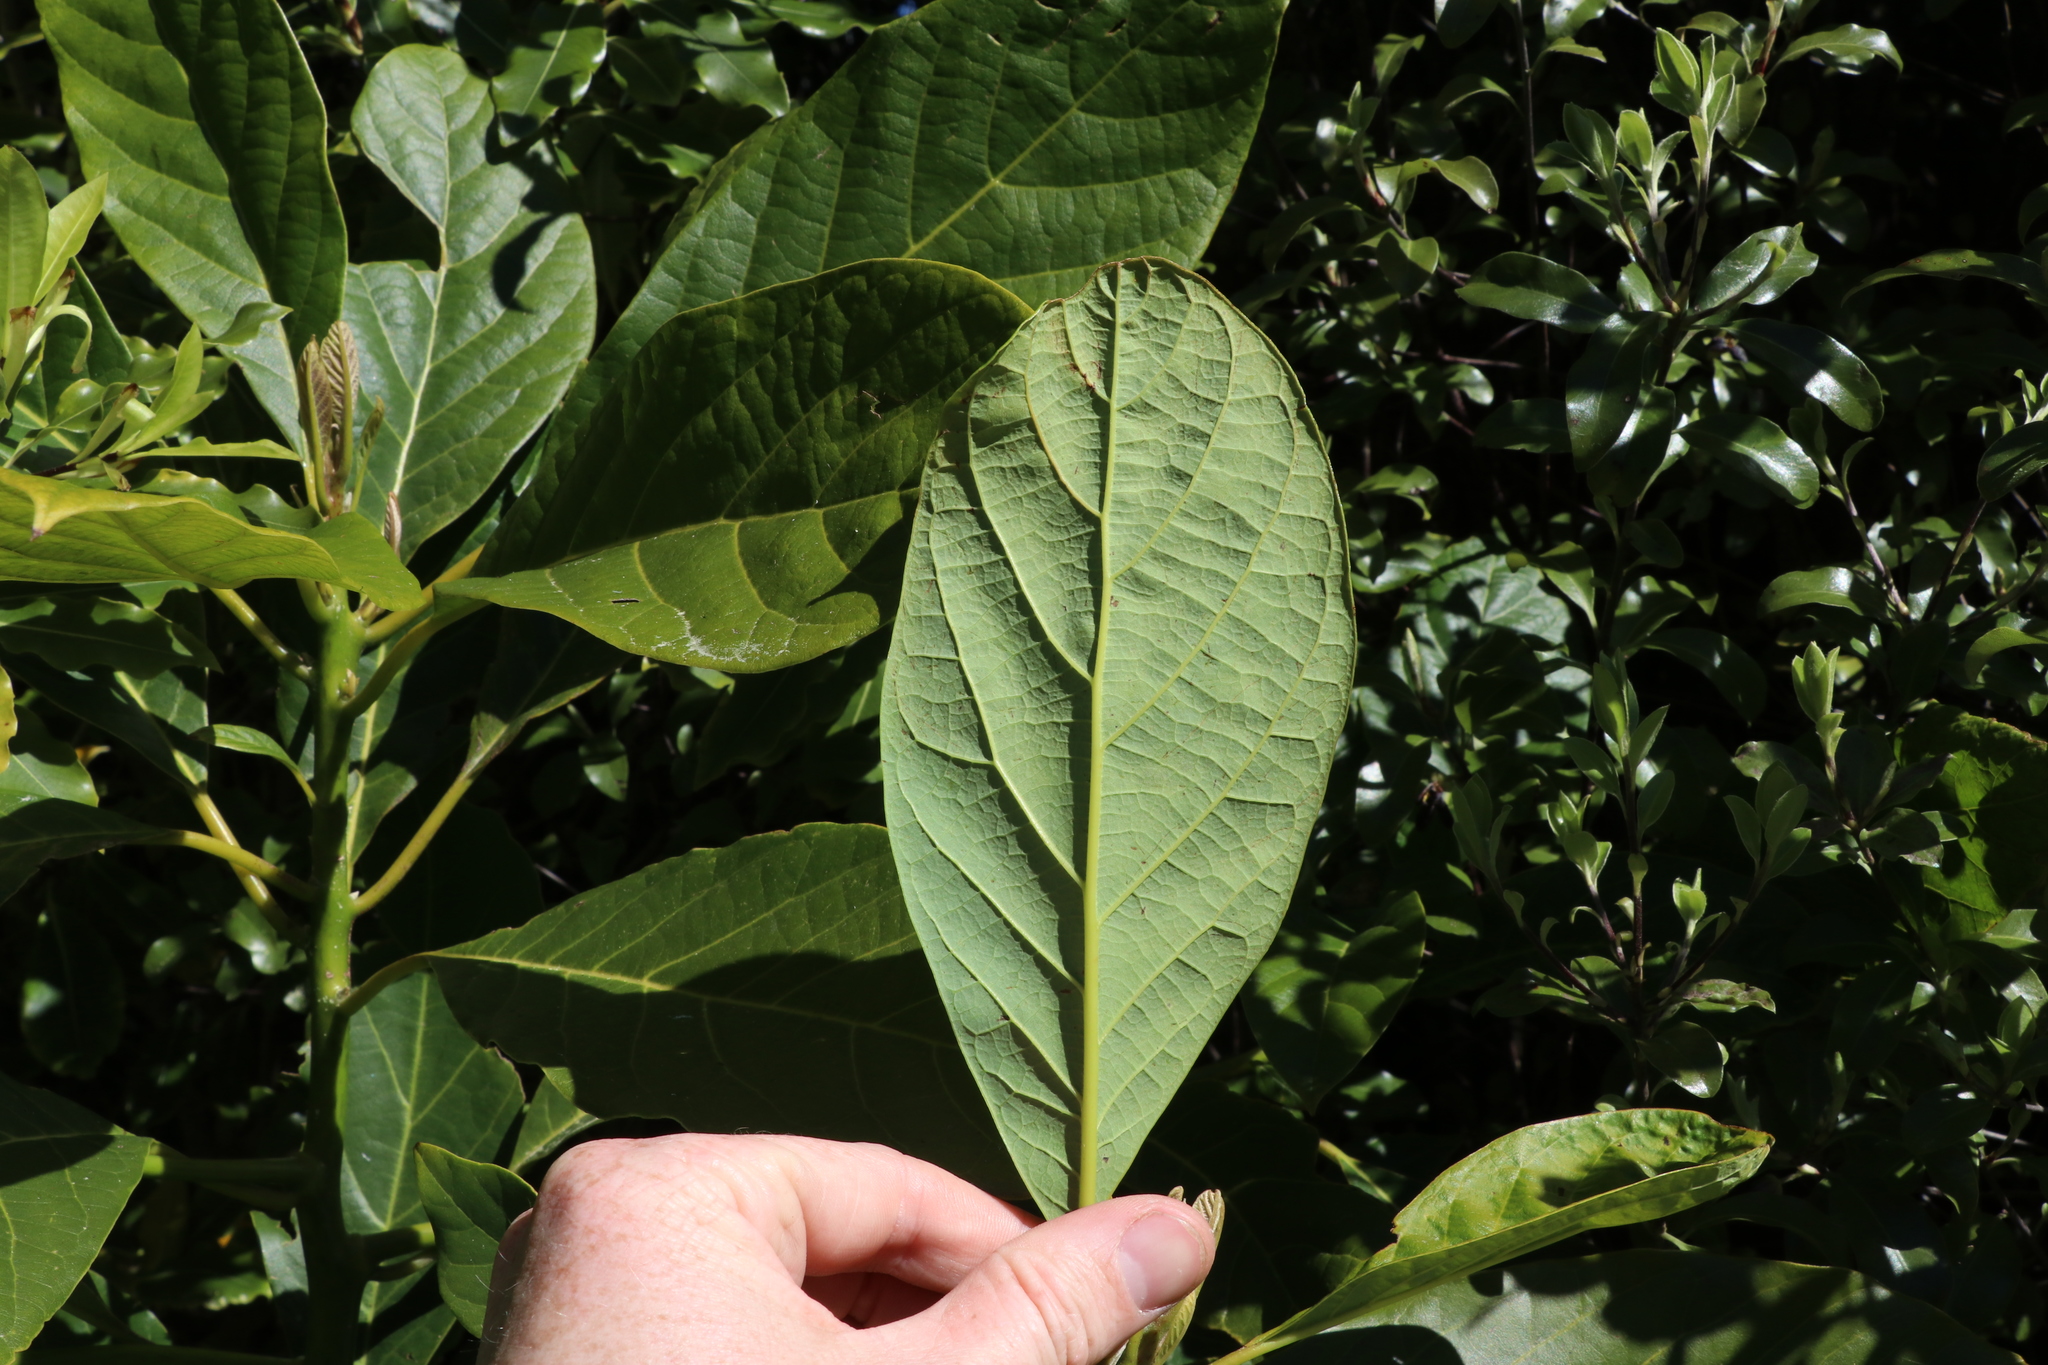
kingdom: Plantae
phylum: Tracheophyta
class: Magnoliopsida
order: Laurales
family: Lauraceae
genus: Persea
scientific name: Persea americana
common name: Avocado
